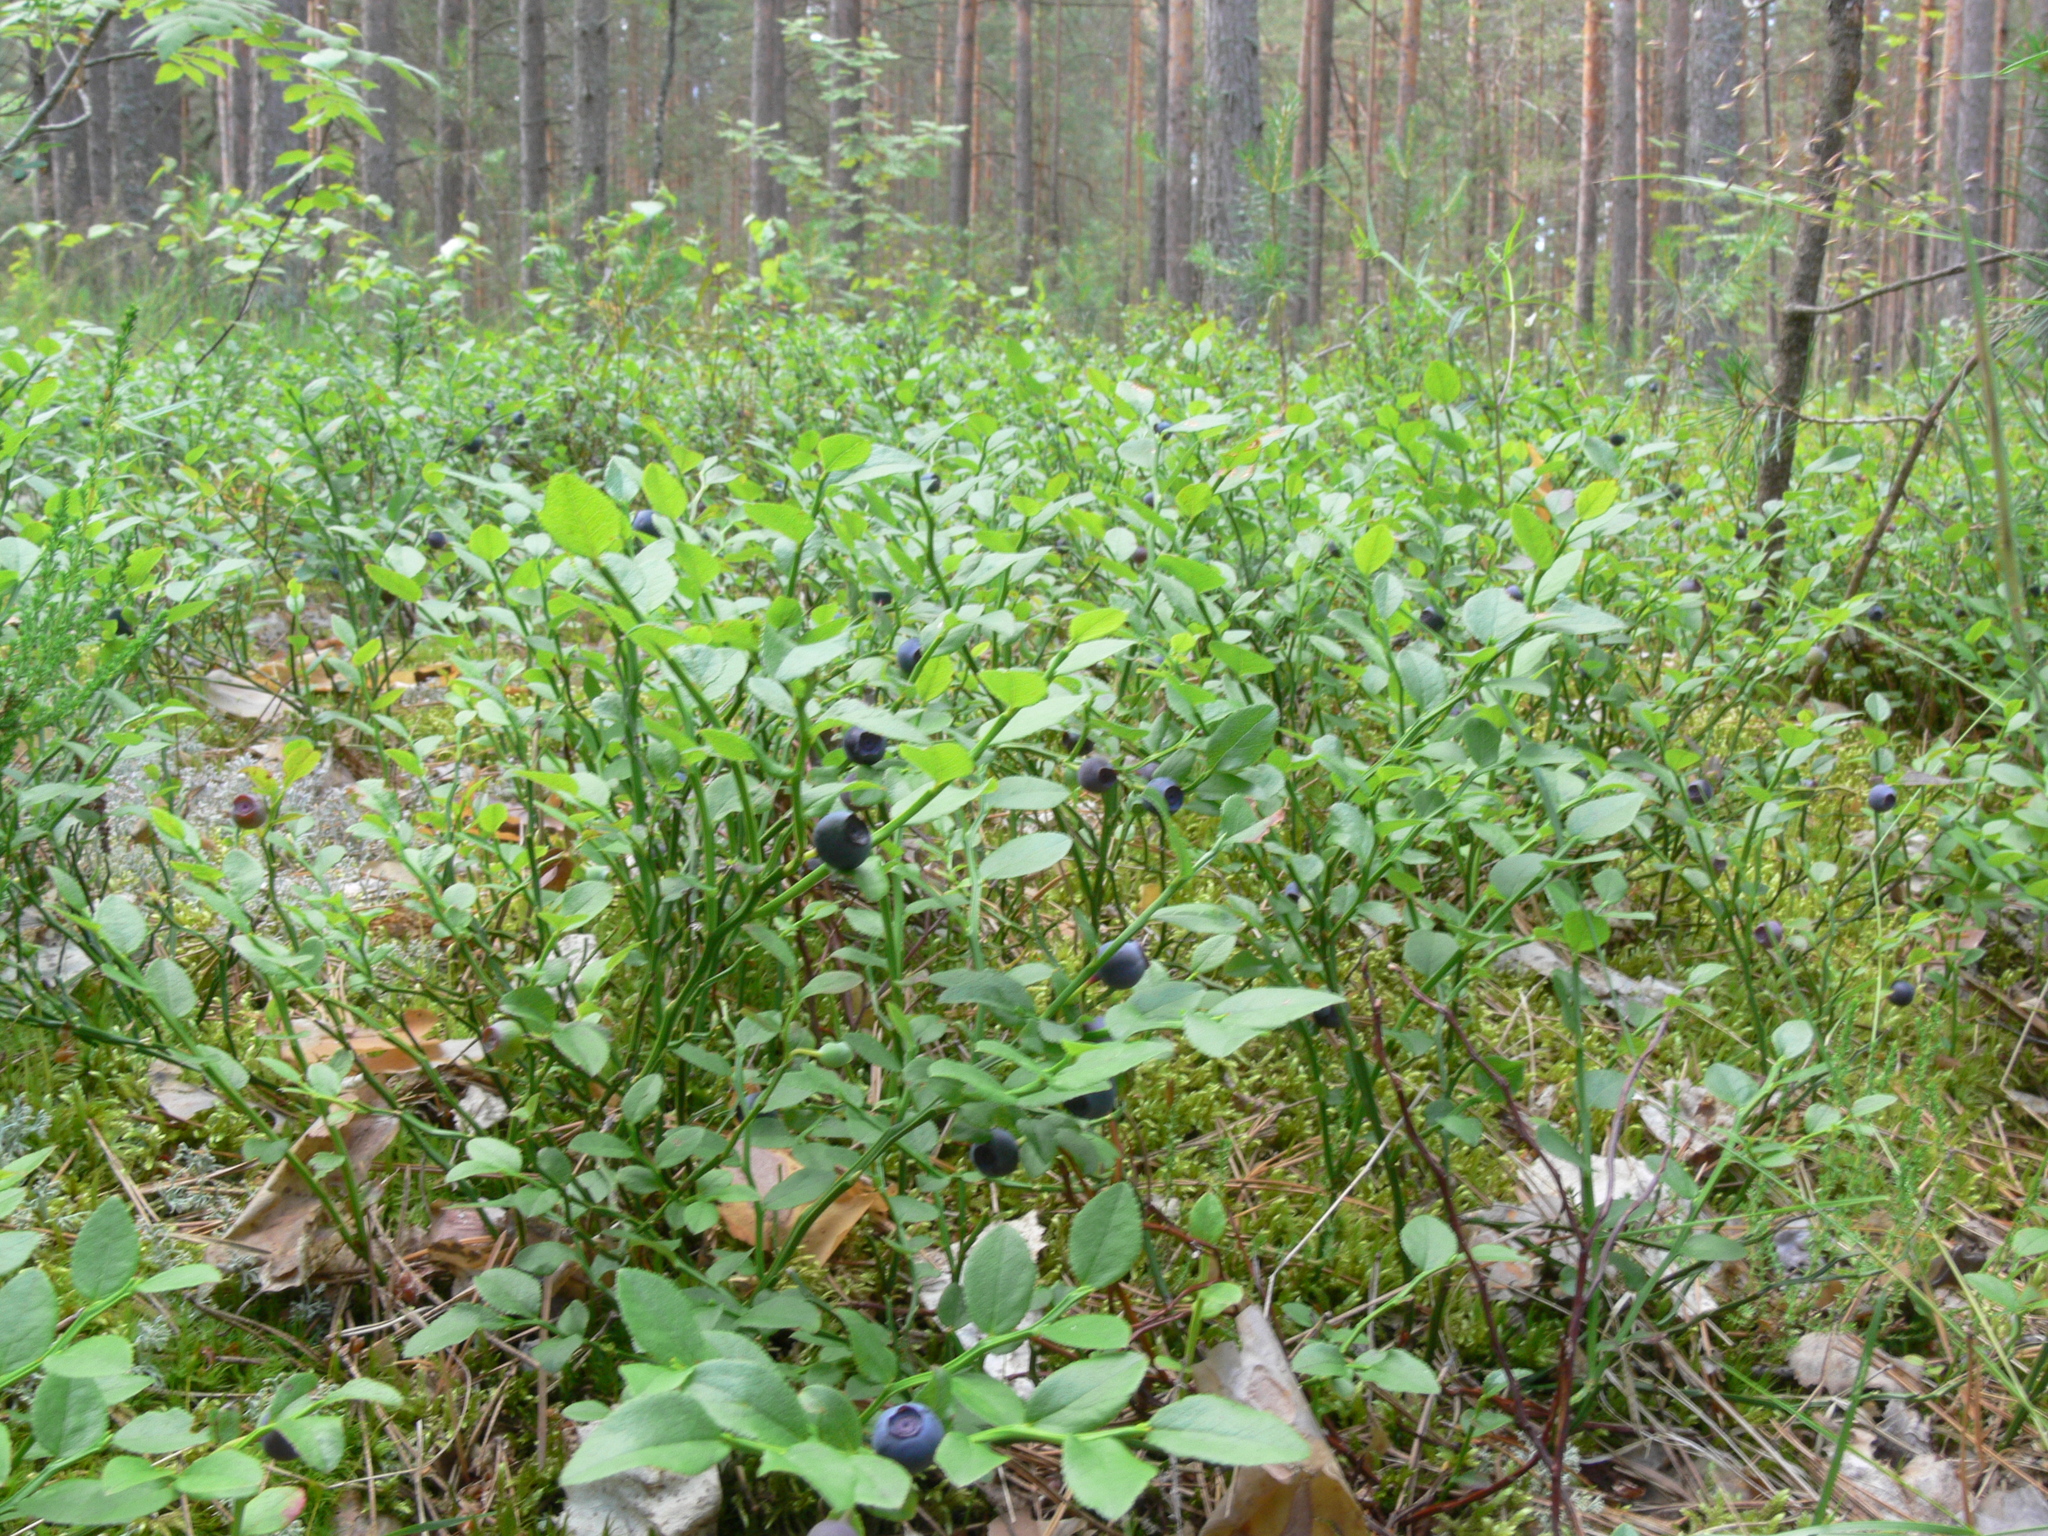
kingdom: Plantae
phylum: Tracheophyta
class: Magnoliopsida
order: Ericales
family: Ericaceae
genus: Vaccinium
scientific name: Vaccinium myrtillus
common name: Bilberry
